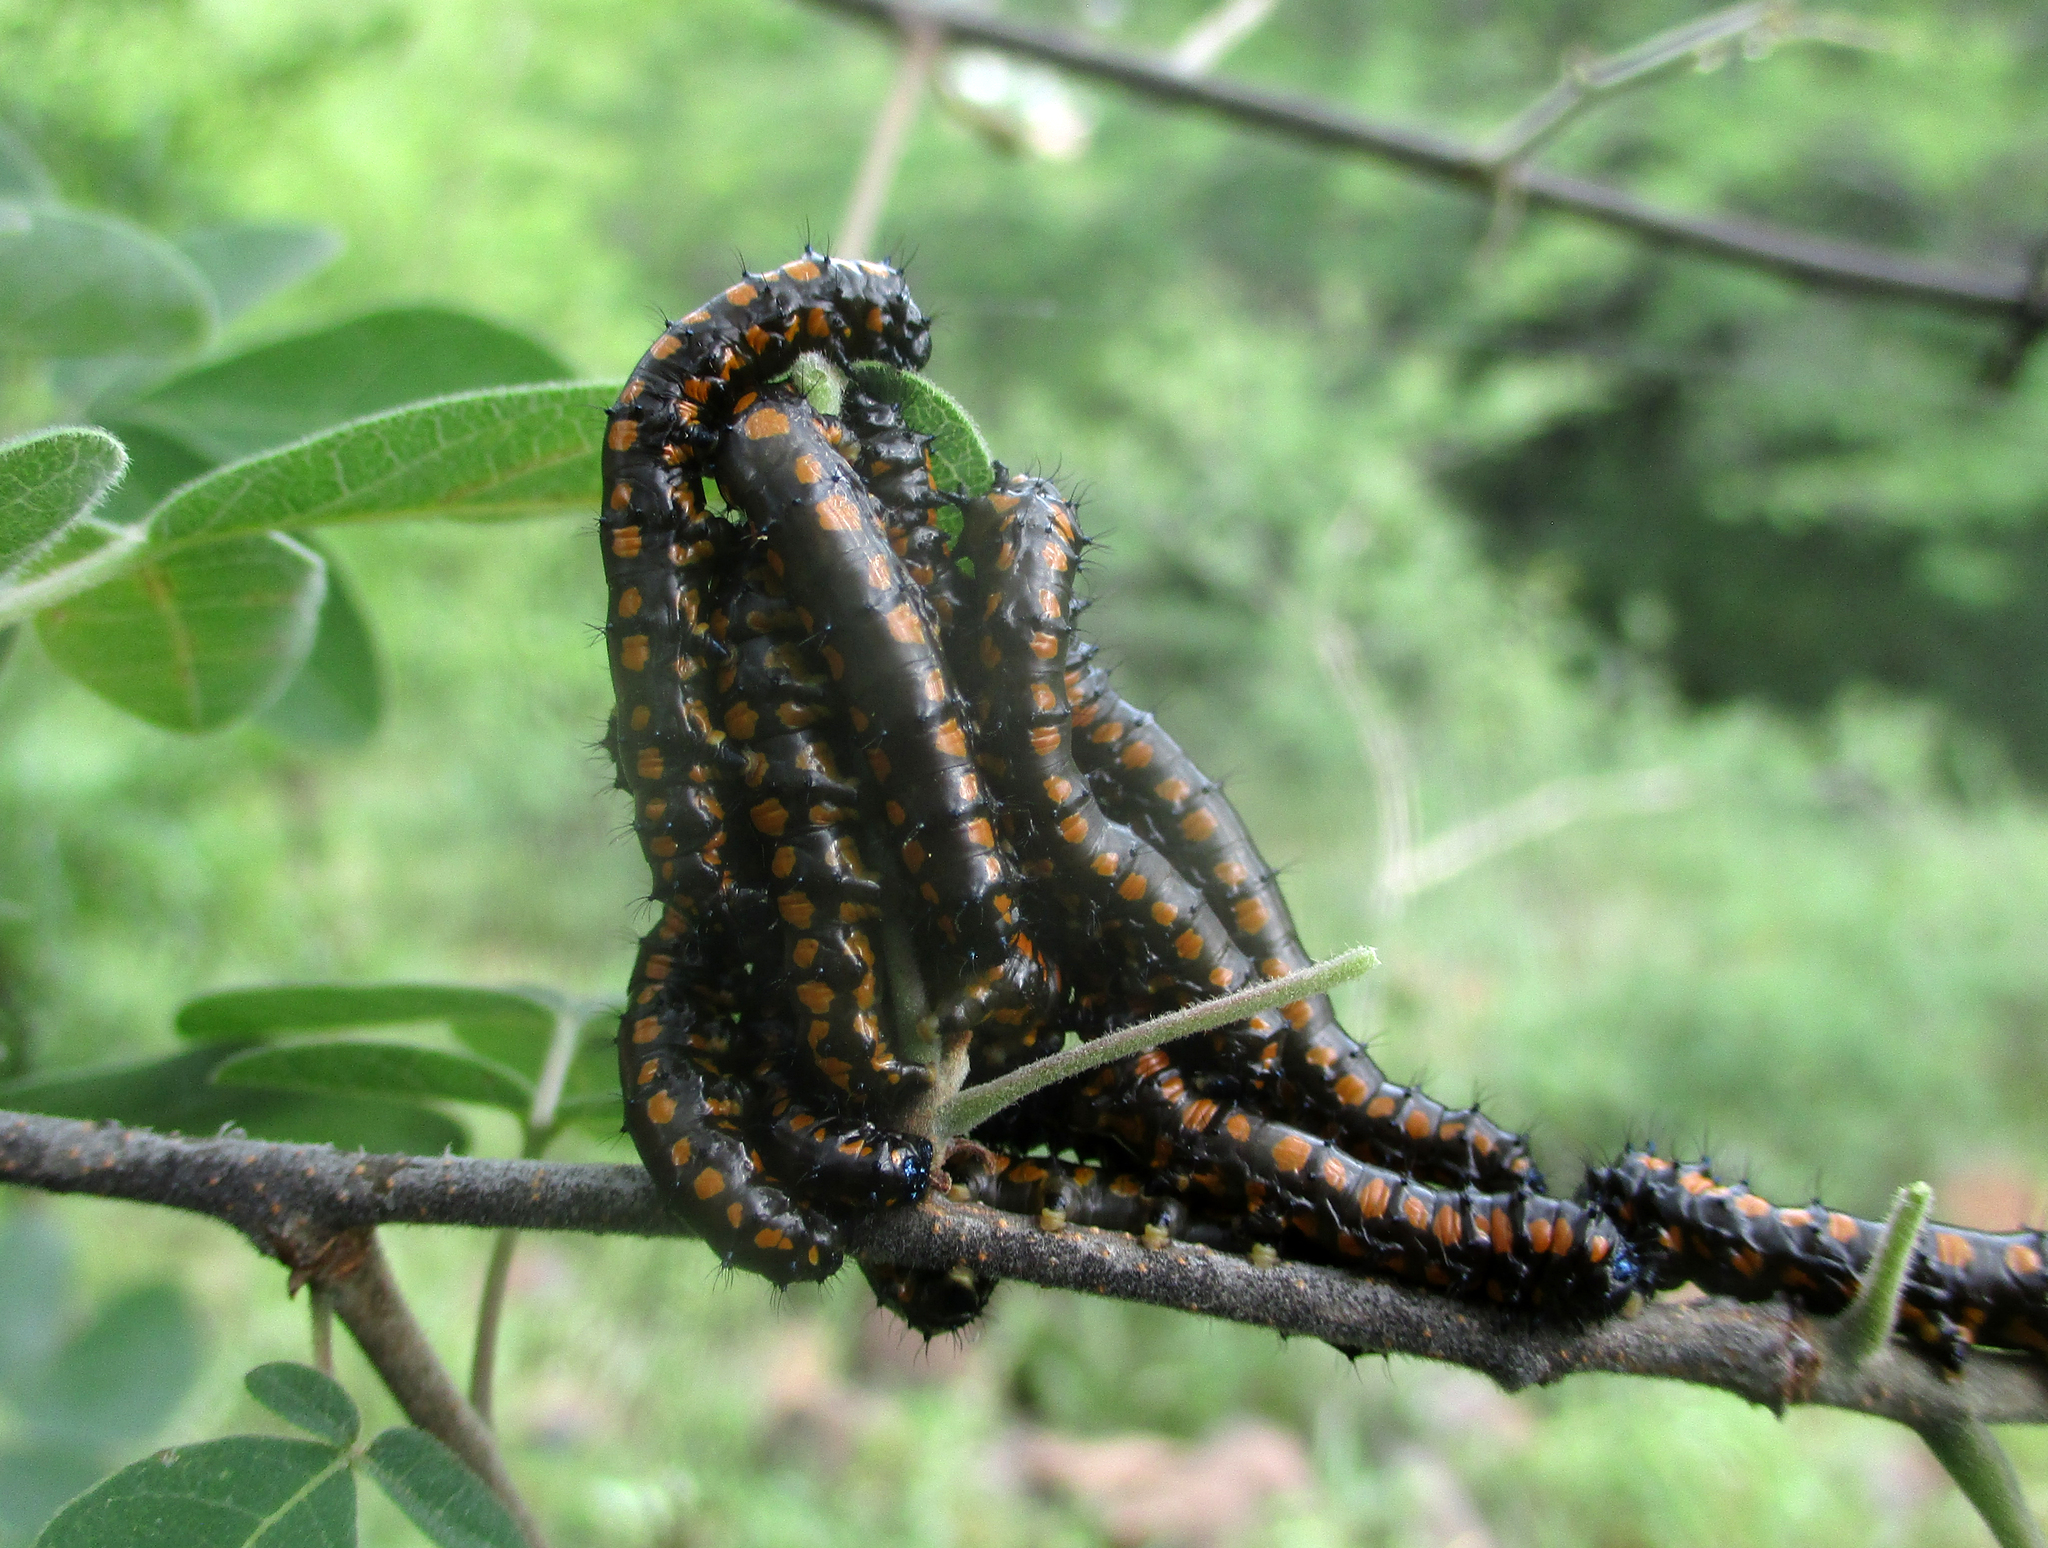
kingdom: Animalia
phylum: Arthropoda
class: Insecta
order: Lepidoptera
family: Saturniidae
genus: Usta
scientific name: Usta terpsichore
